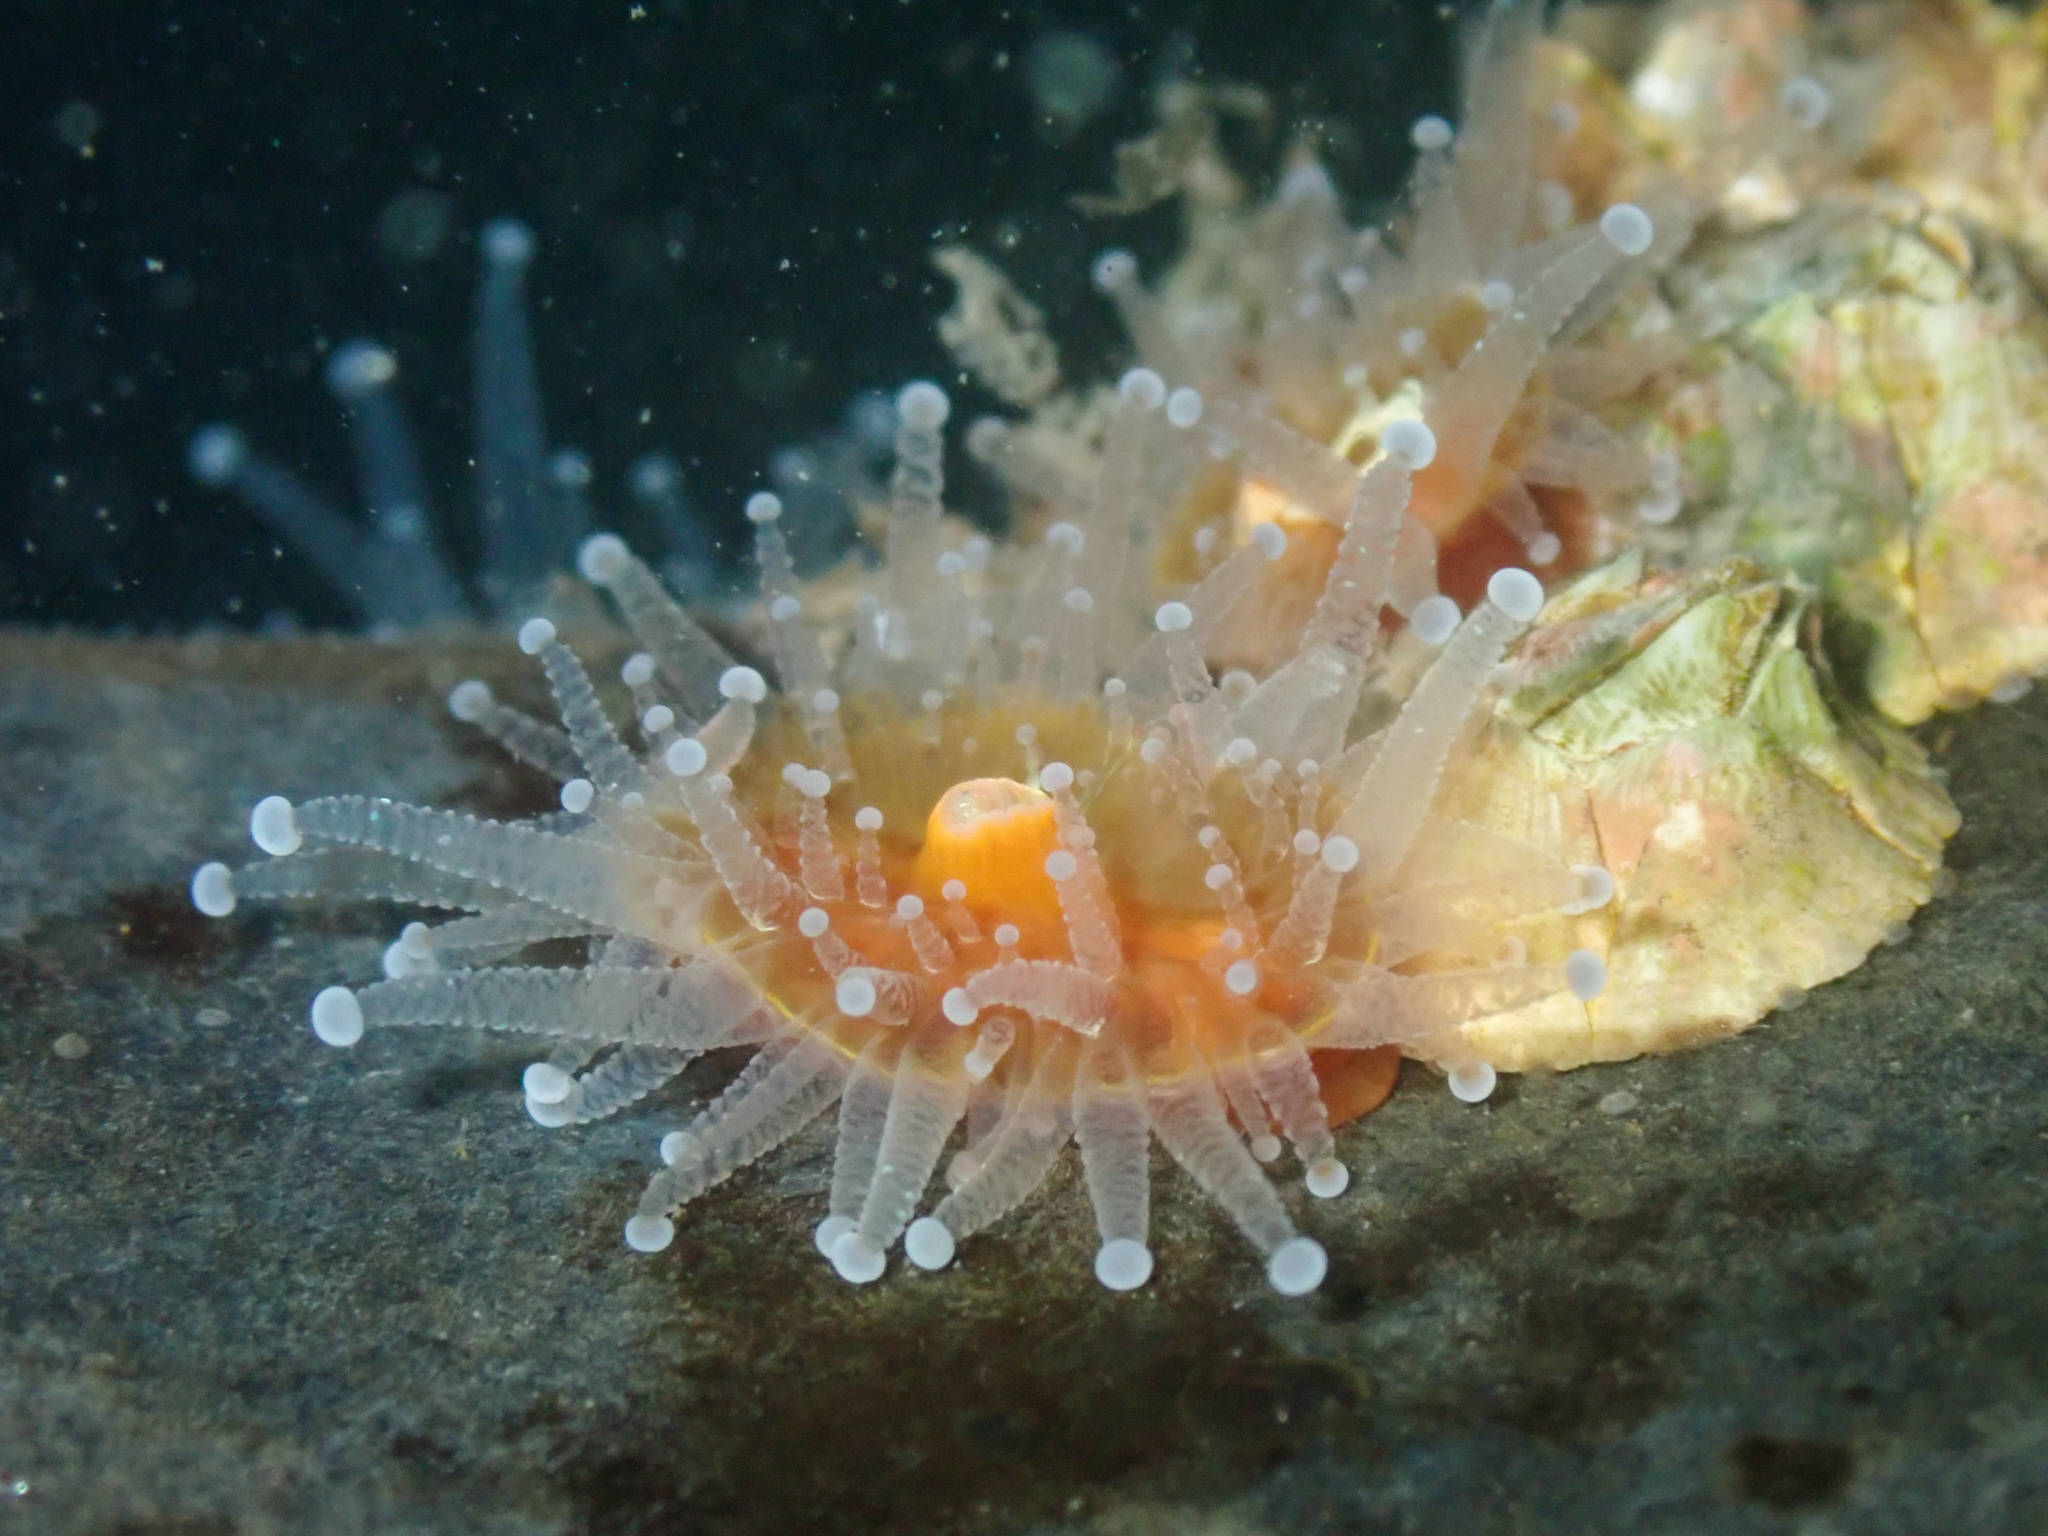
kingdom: Animalia
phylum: Cnidaria
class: Anthozoa
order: Corallimorpharia
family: Corallimorphidae
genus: Corynactis
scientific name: Corynactis californica
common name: Strawberry corallimorpharian
